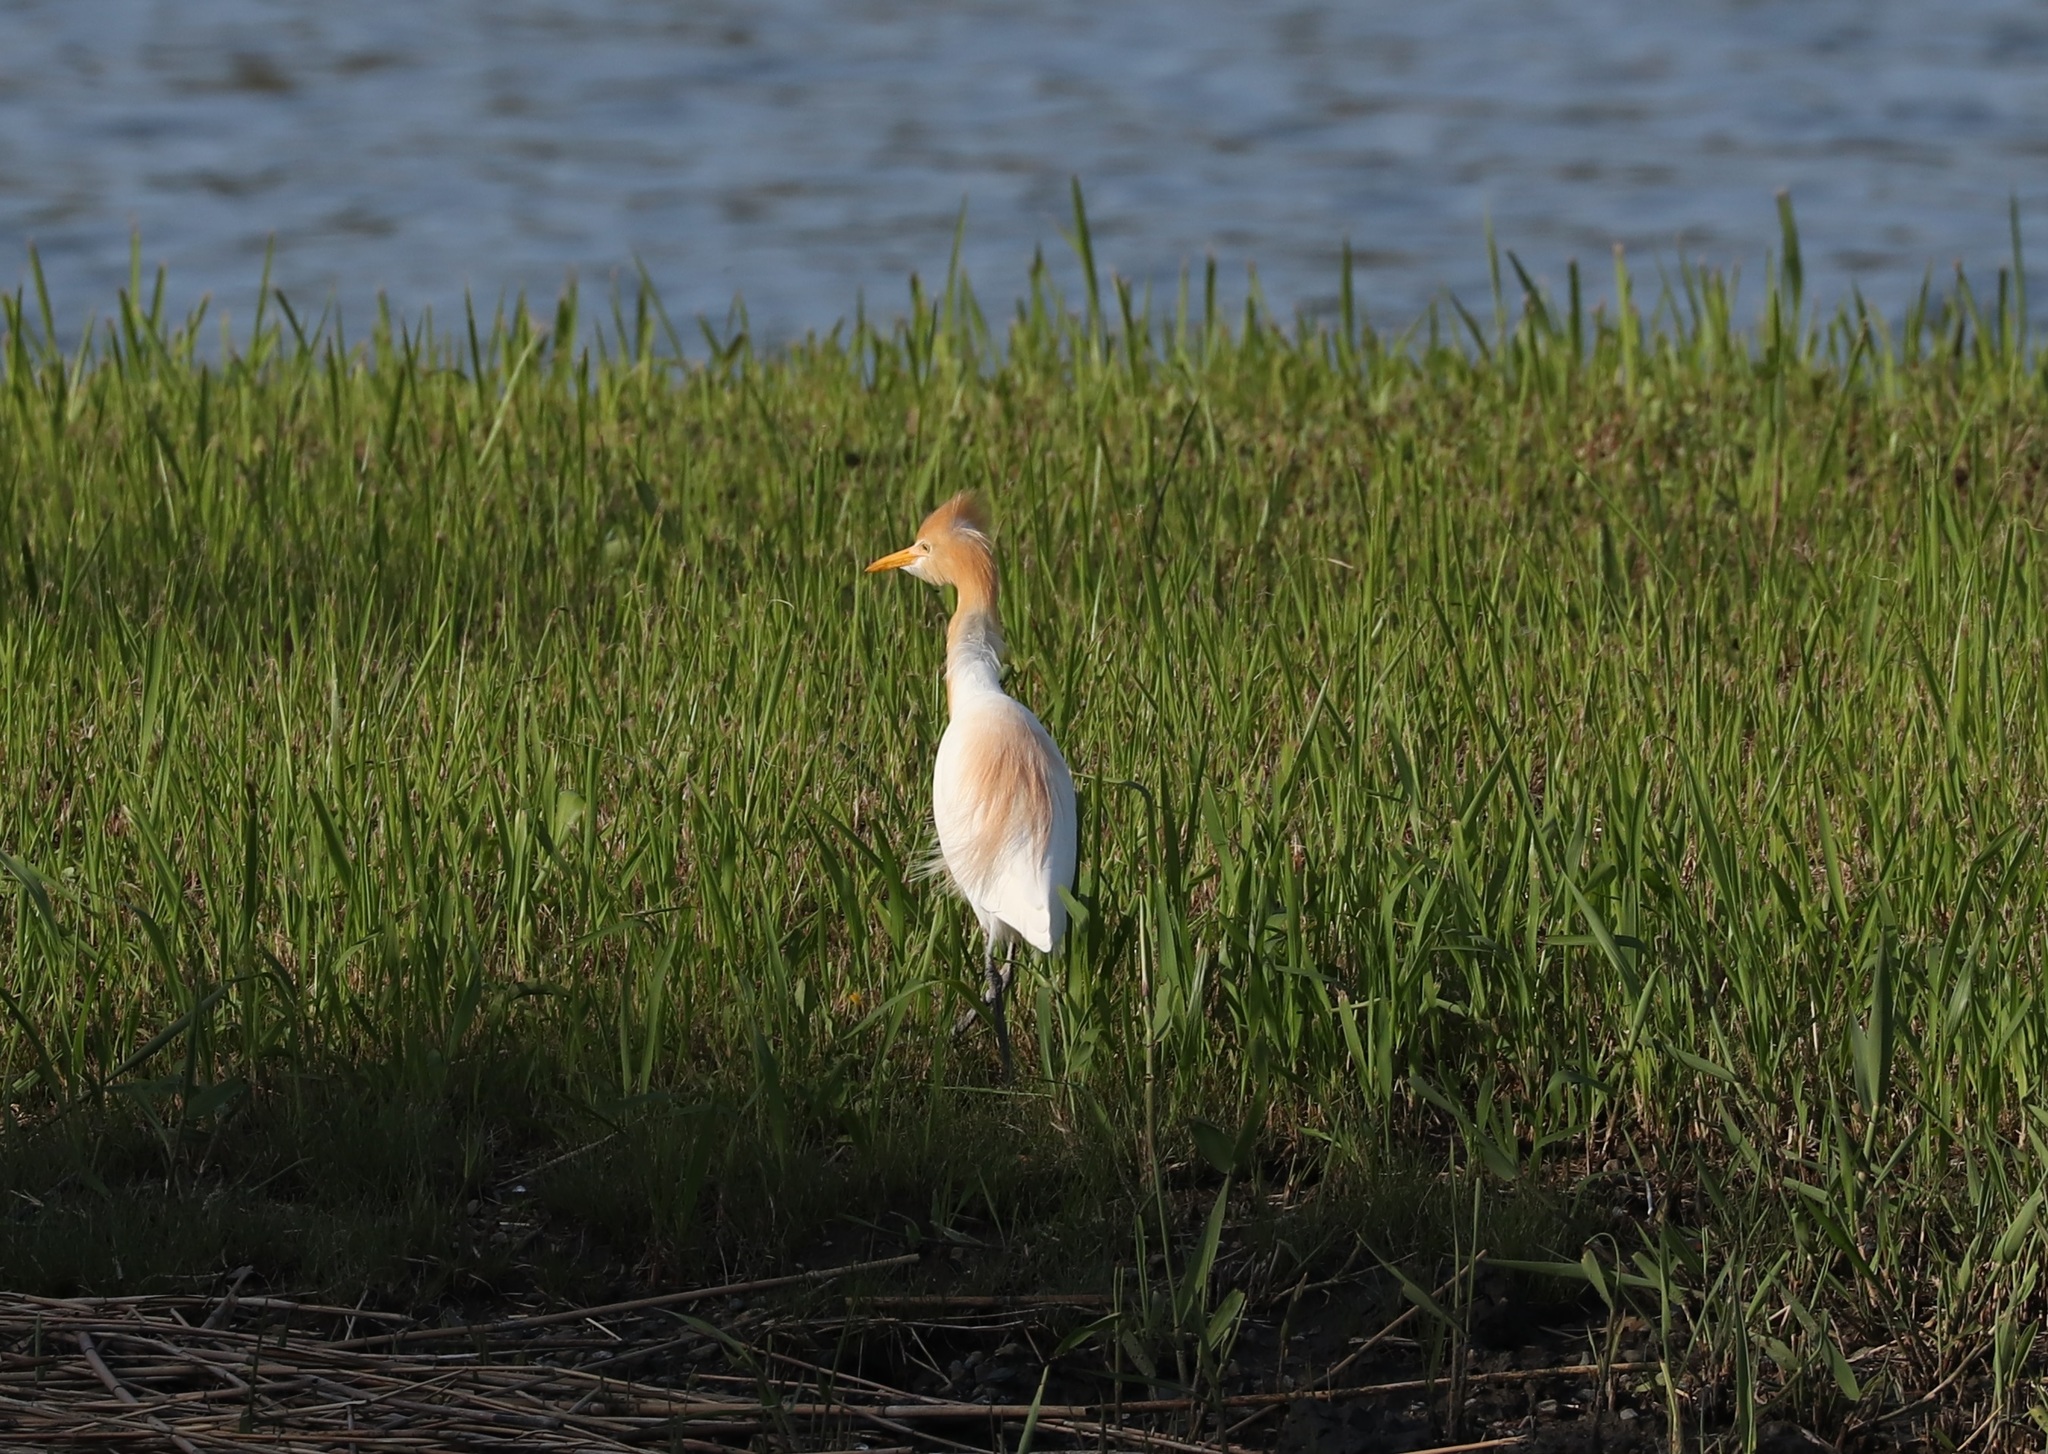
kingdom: Animalia
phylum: Chordata
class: Aves
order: Pelecaniformes
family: Ardeidae
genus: Bubulcus
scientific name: Bubulcus coromandus
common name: Eastern cattle egret
